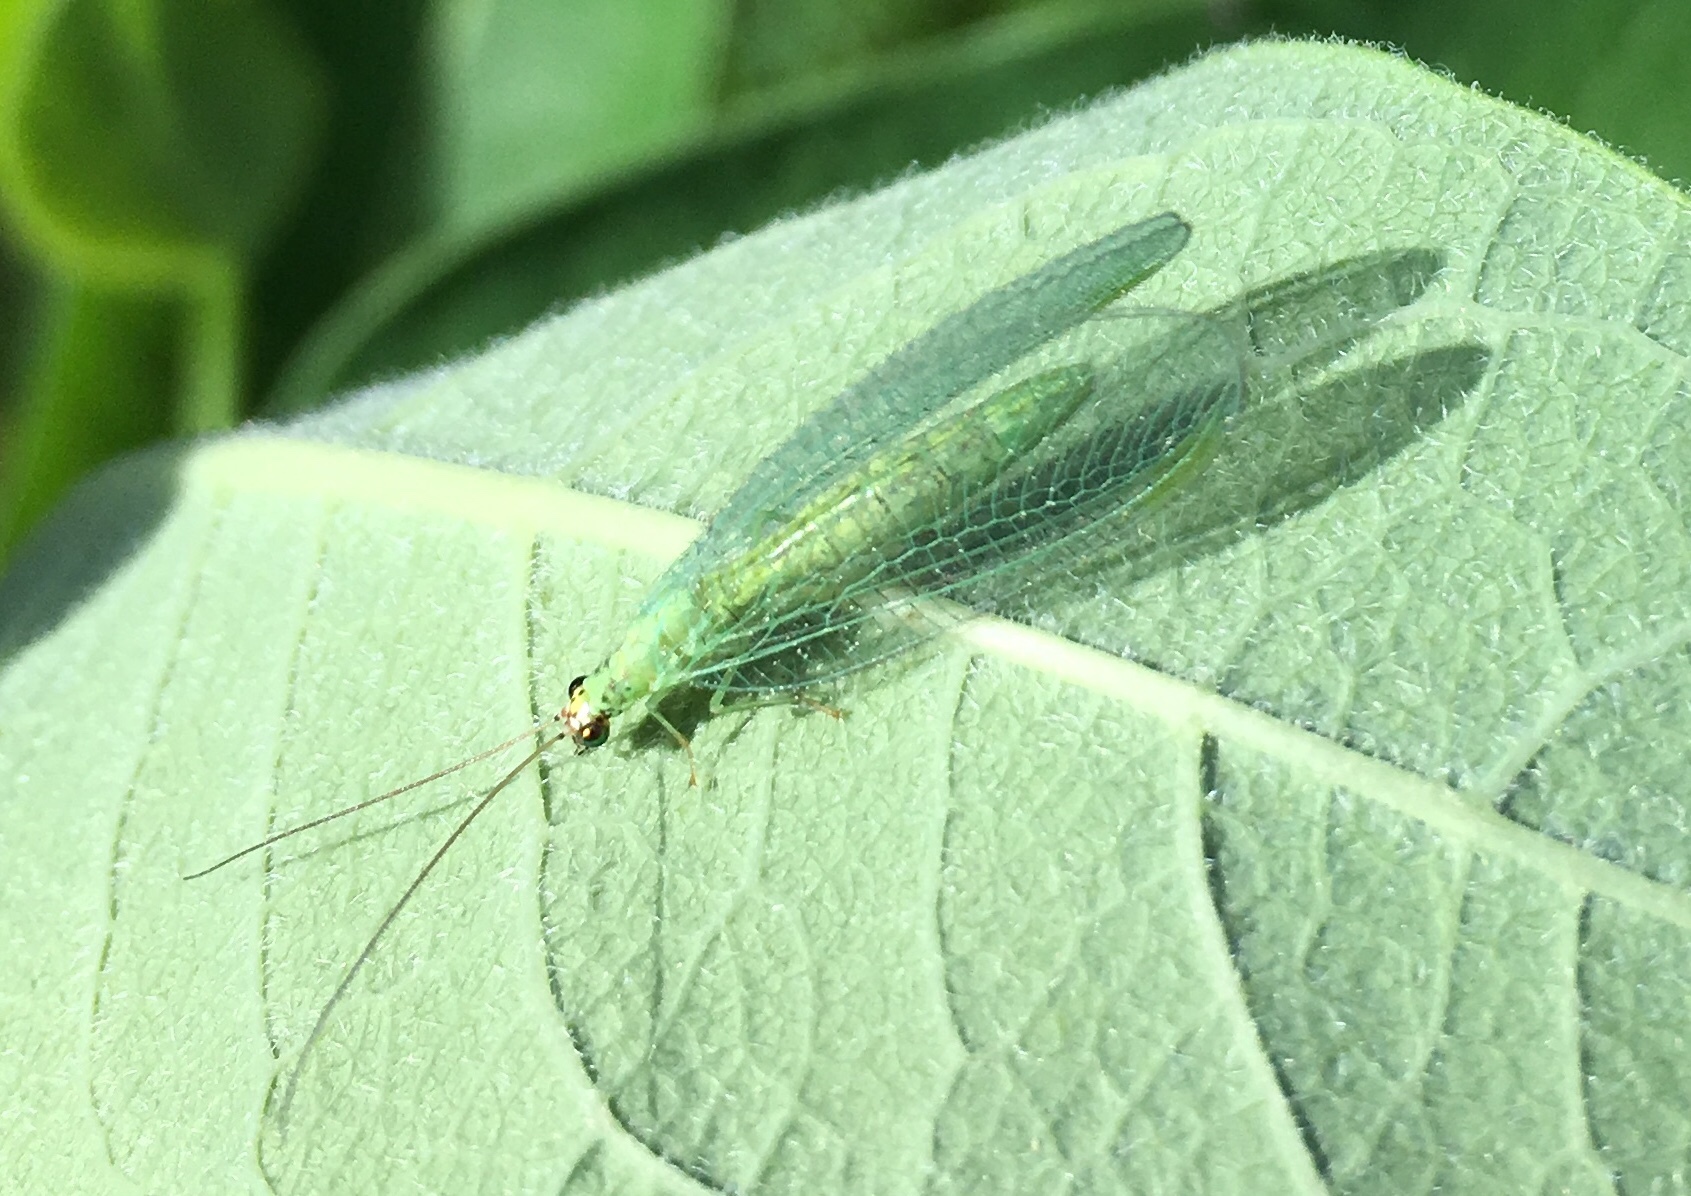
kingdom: Animalia
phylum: Arthropoda
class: Insecta
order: Neuroptera
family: Chrysopidae
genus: Chrysopa
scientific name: Chrysopa oculata
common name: Golden-eyed lacewing
